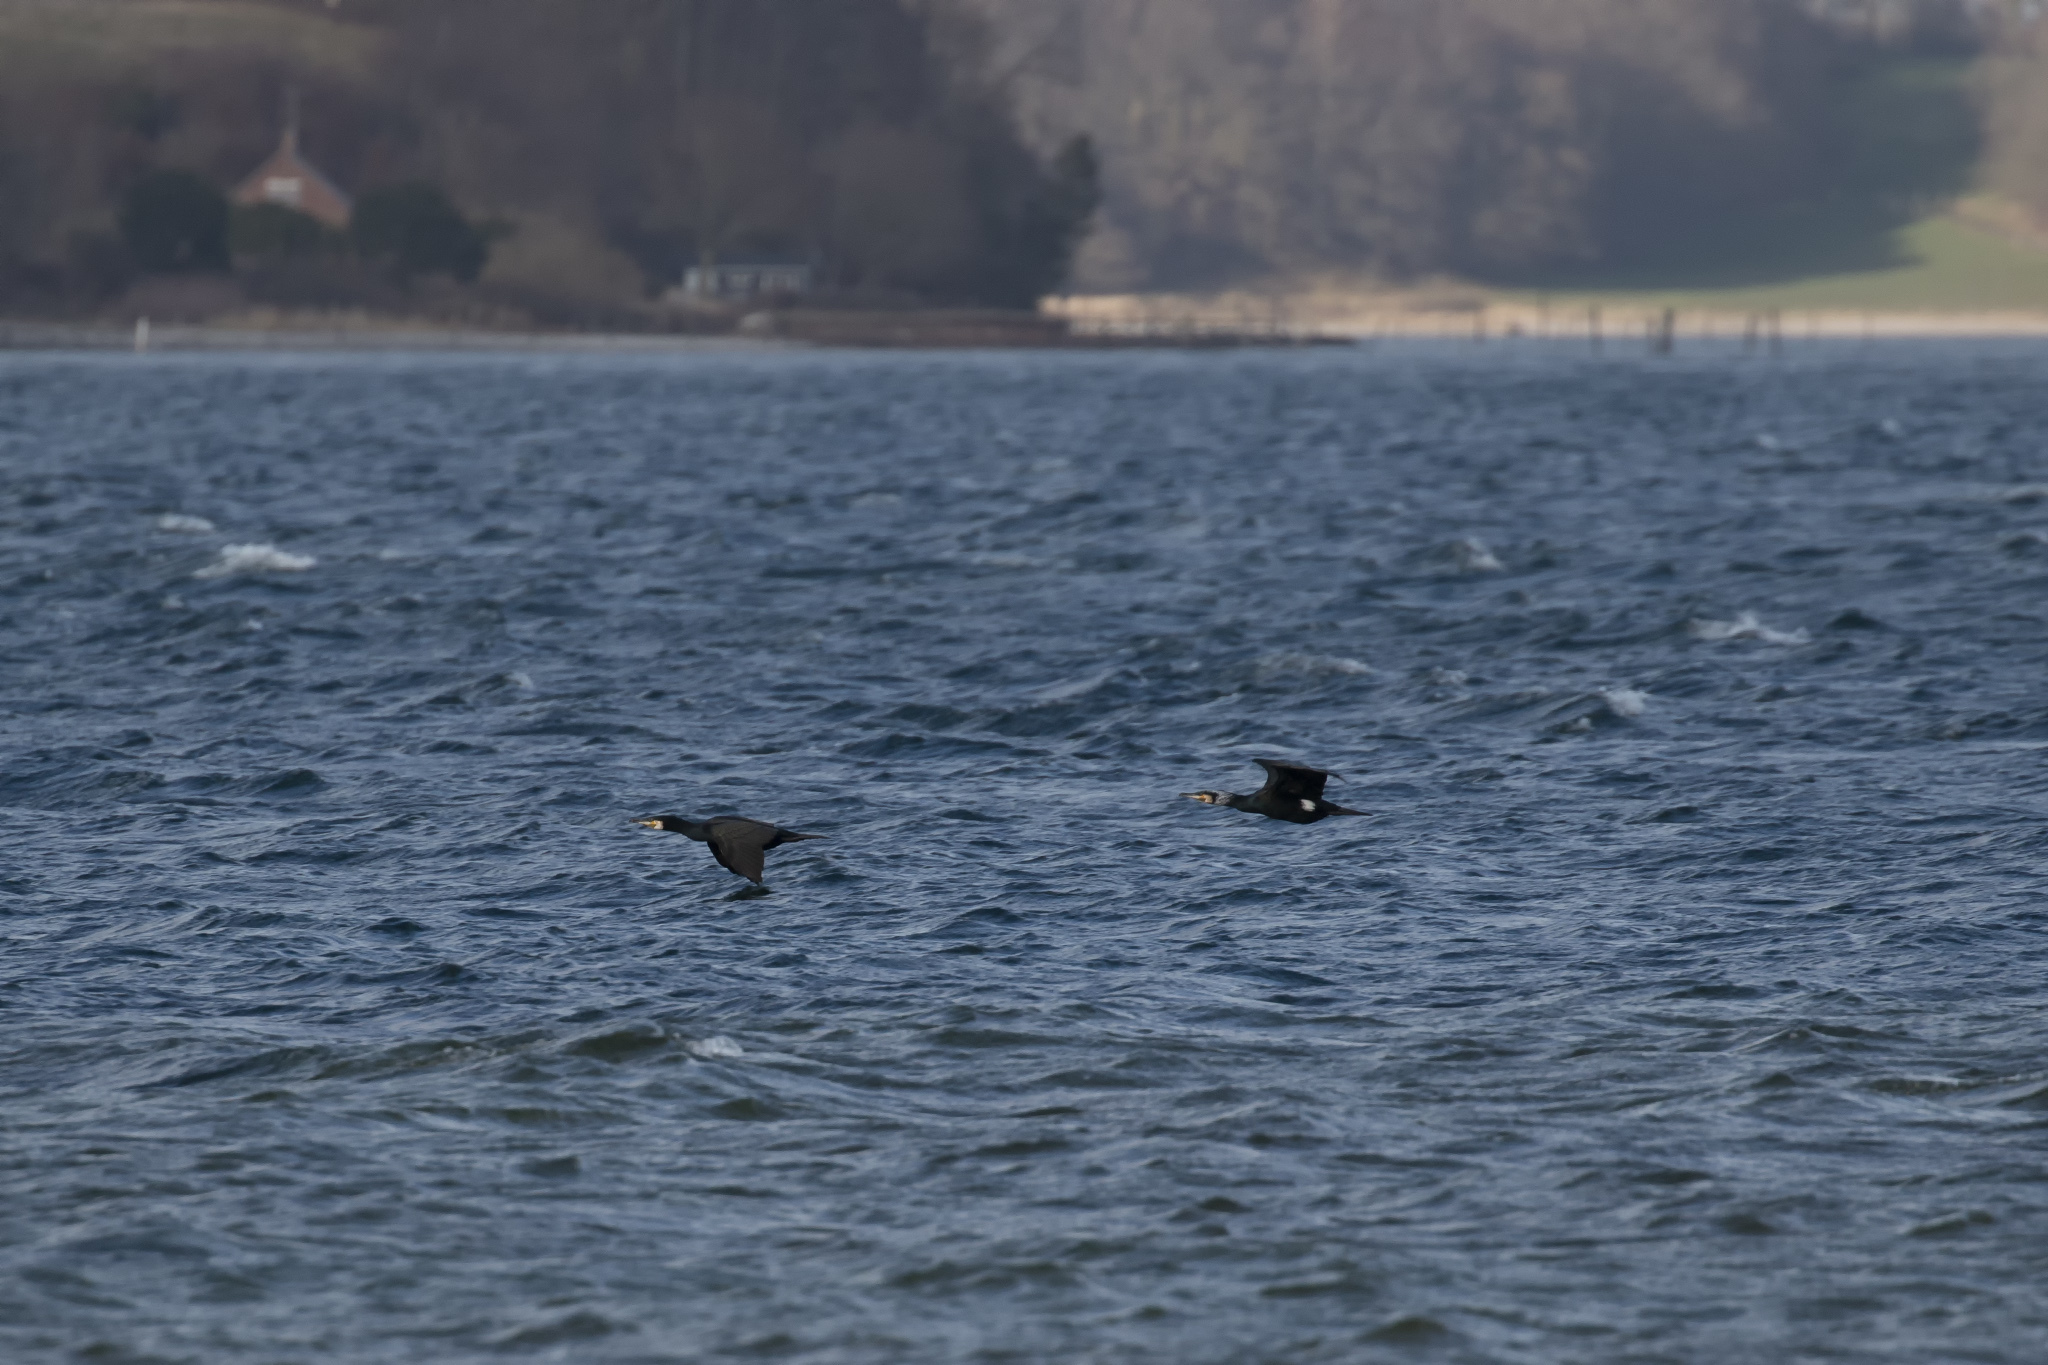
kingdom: Animalia
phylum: Chordata
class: Aves
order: Suliformes
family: Phalacrocoracidae
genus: Phalacrocorax
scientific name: Phalacrocorax carbo
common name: Great cormorant
